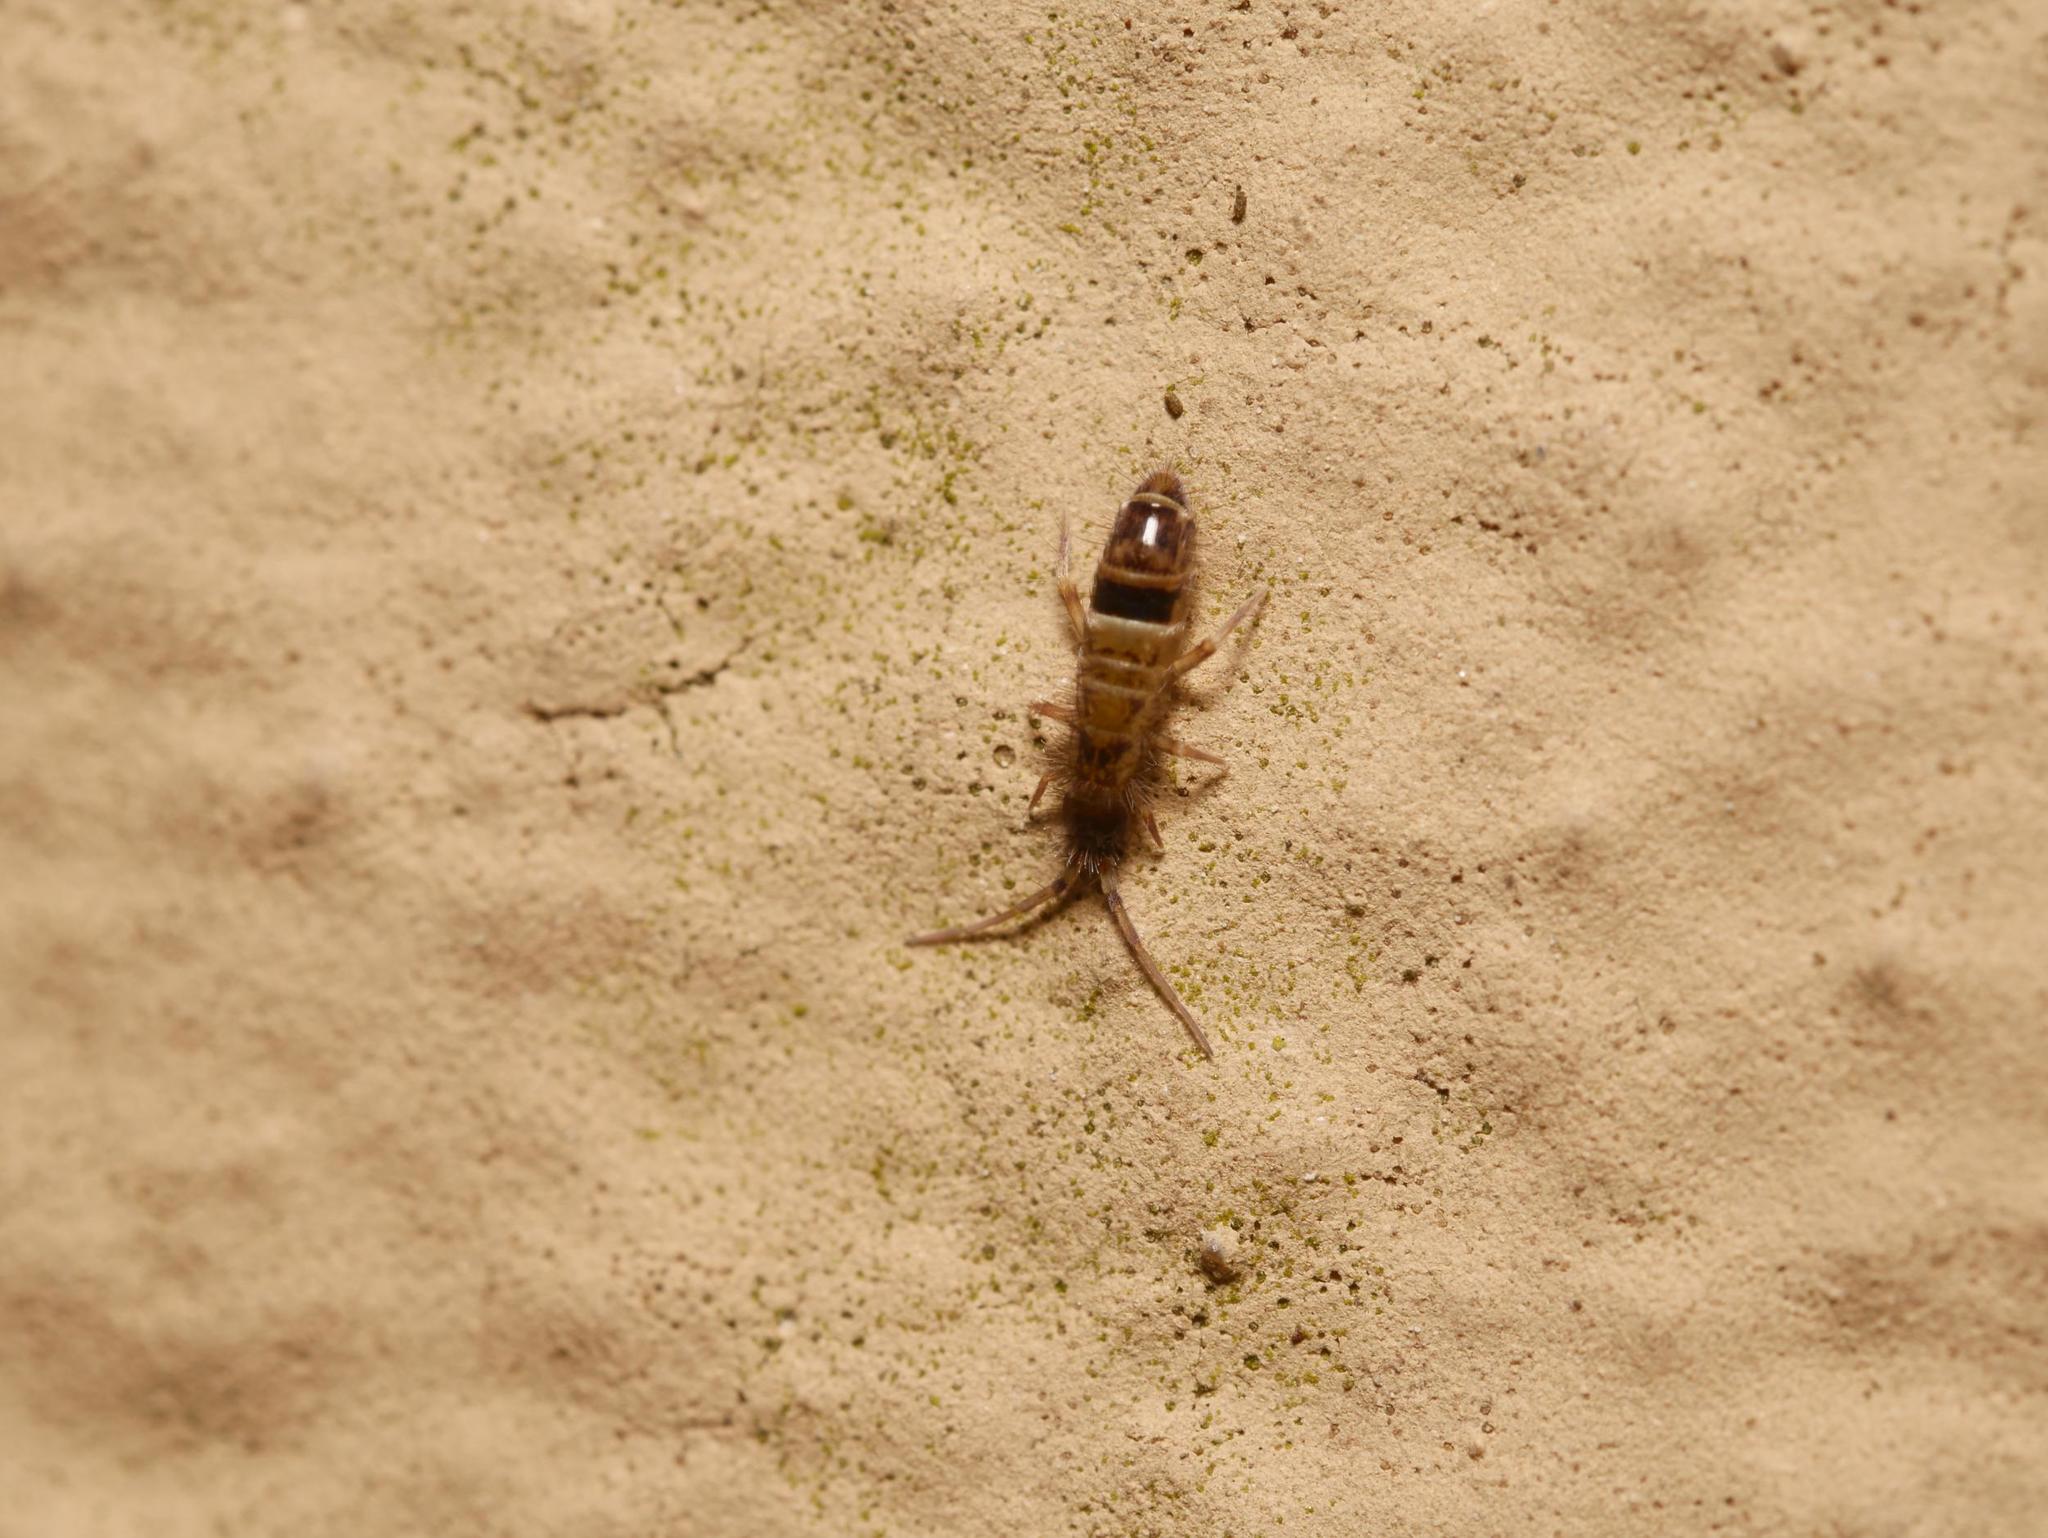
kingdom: Animalia
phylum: Arthropoda
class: Collembola
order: Entomobryomorpha
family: Orchesellidae
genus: Orchesella
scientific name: Orchesella cincta
